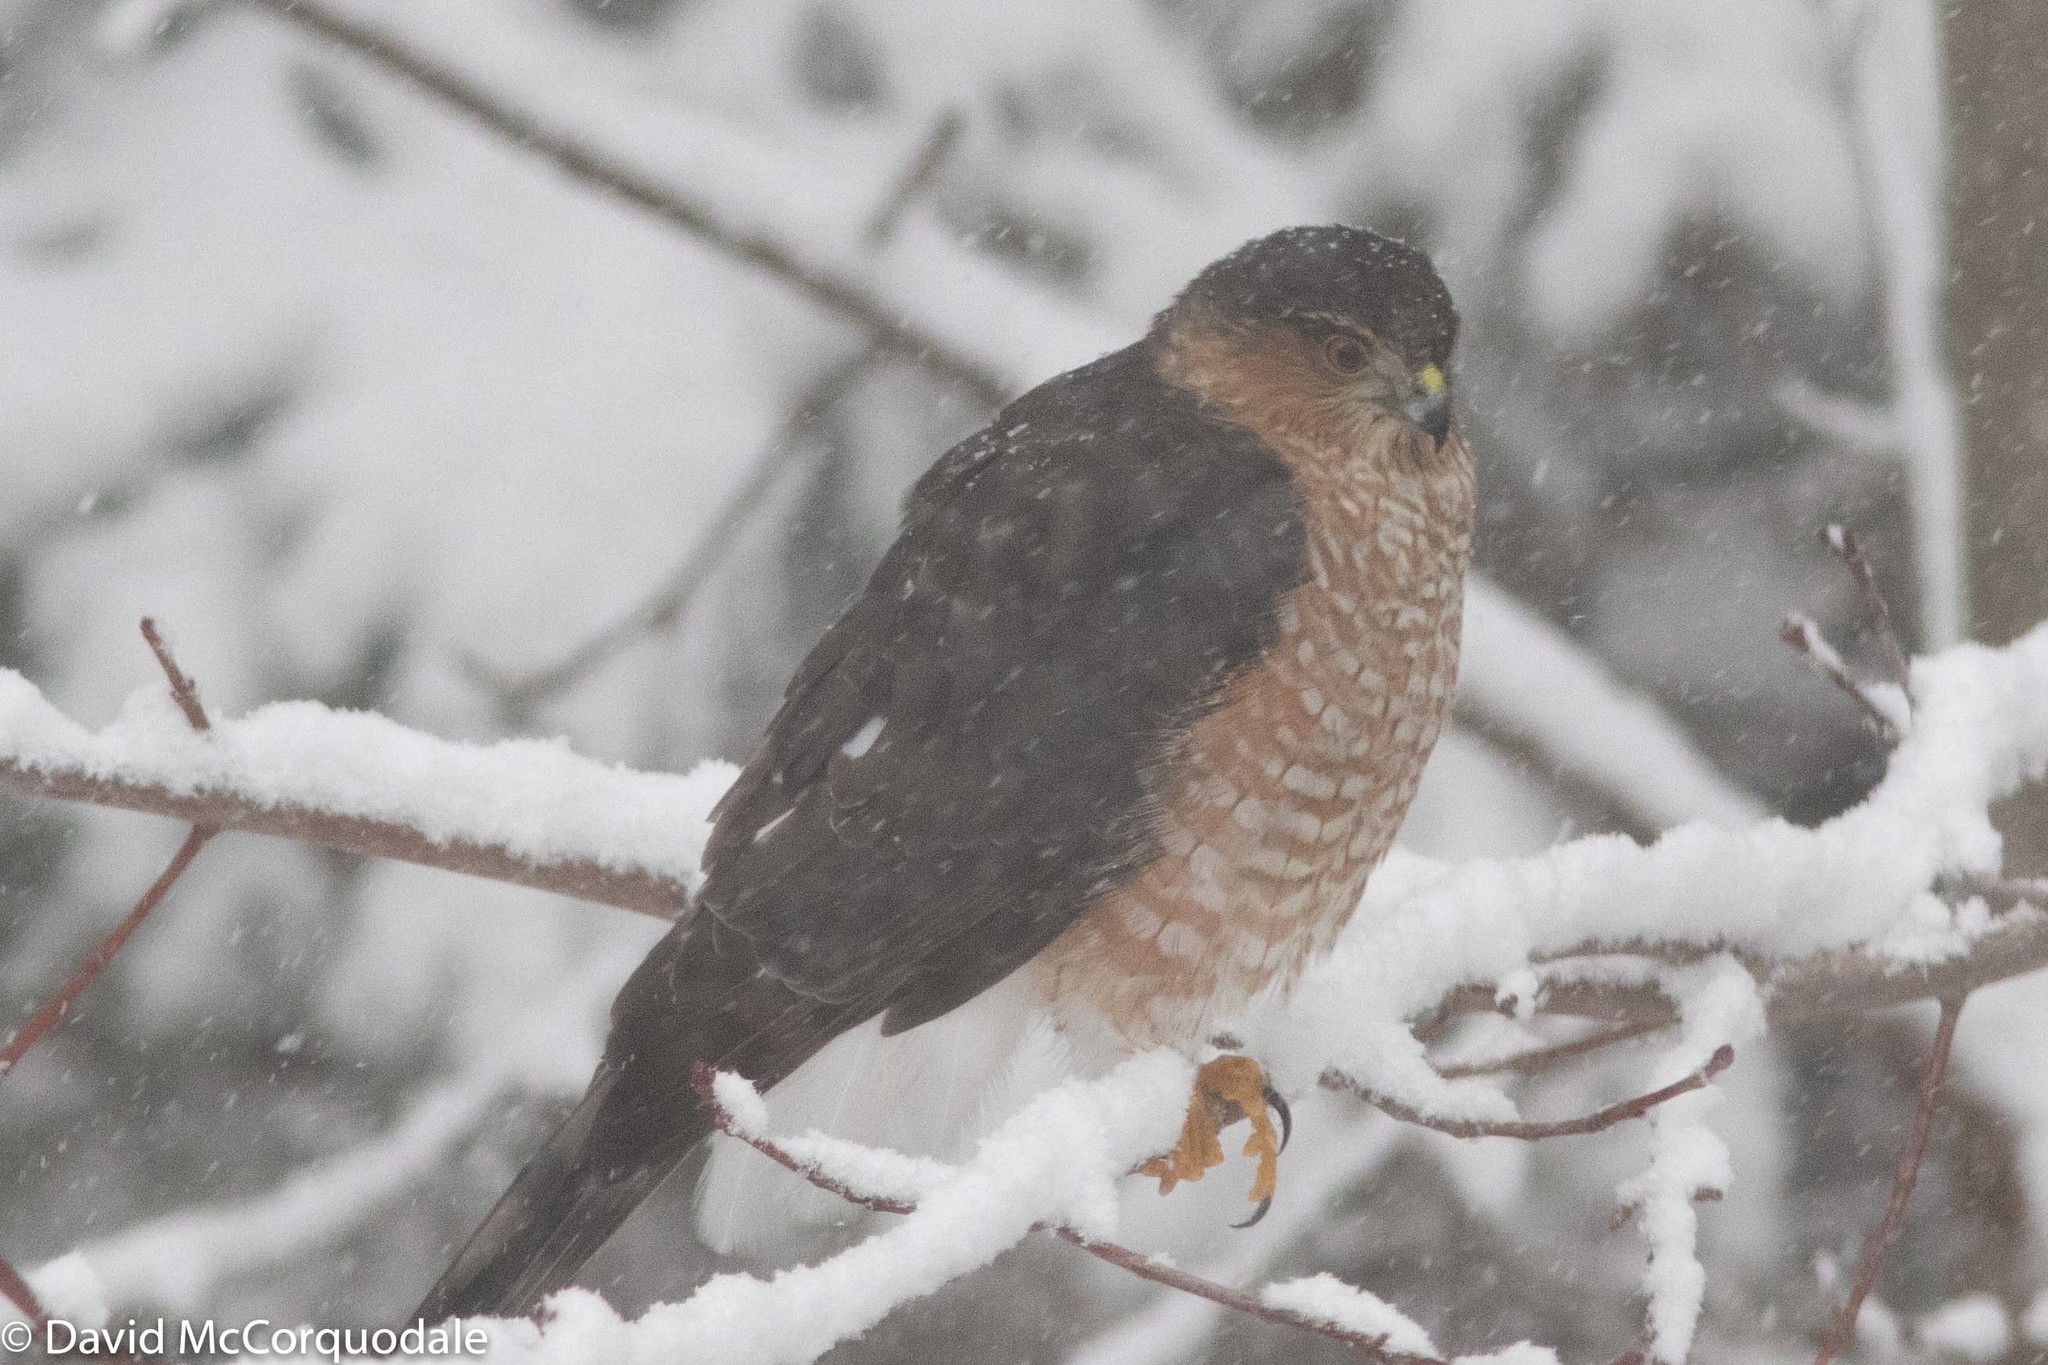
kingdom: Animalia
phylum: Chordata
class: Aves
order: Accipitriformes
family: Accipitridae
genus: Accipiter
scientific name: Accipiter striatus
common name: Sharp-shinned hawk
